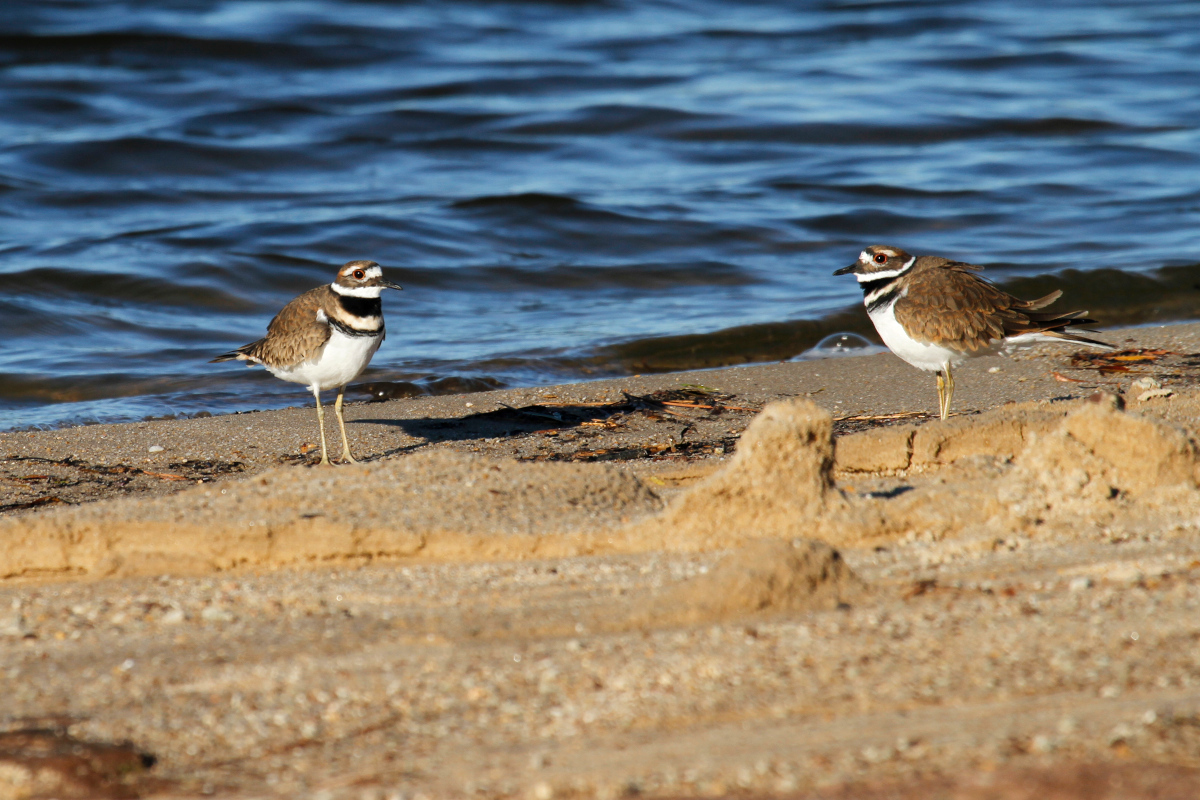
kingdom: Animalia
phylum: Chordata
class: Aves
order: Charadriiformes
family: Charadriidae
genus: Charadrius
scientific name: Charadrius vociferus
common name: Killdeer
